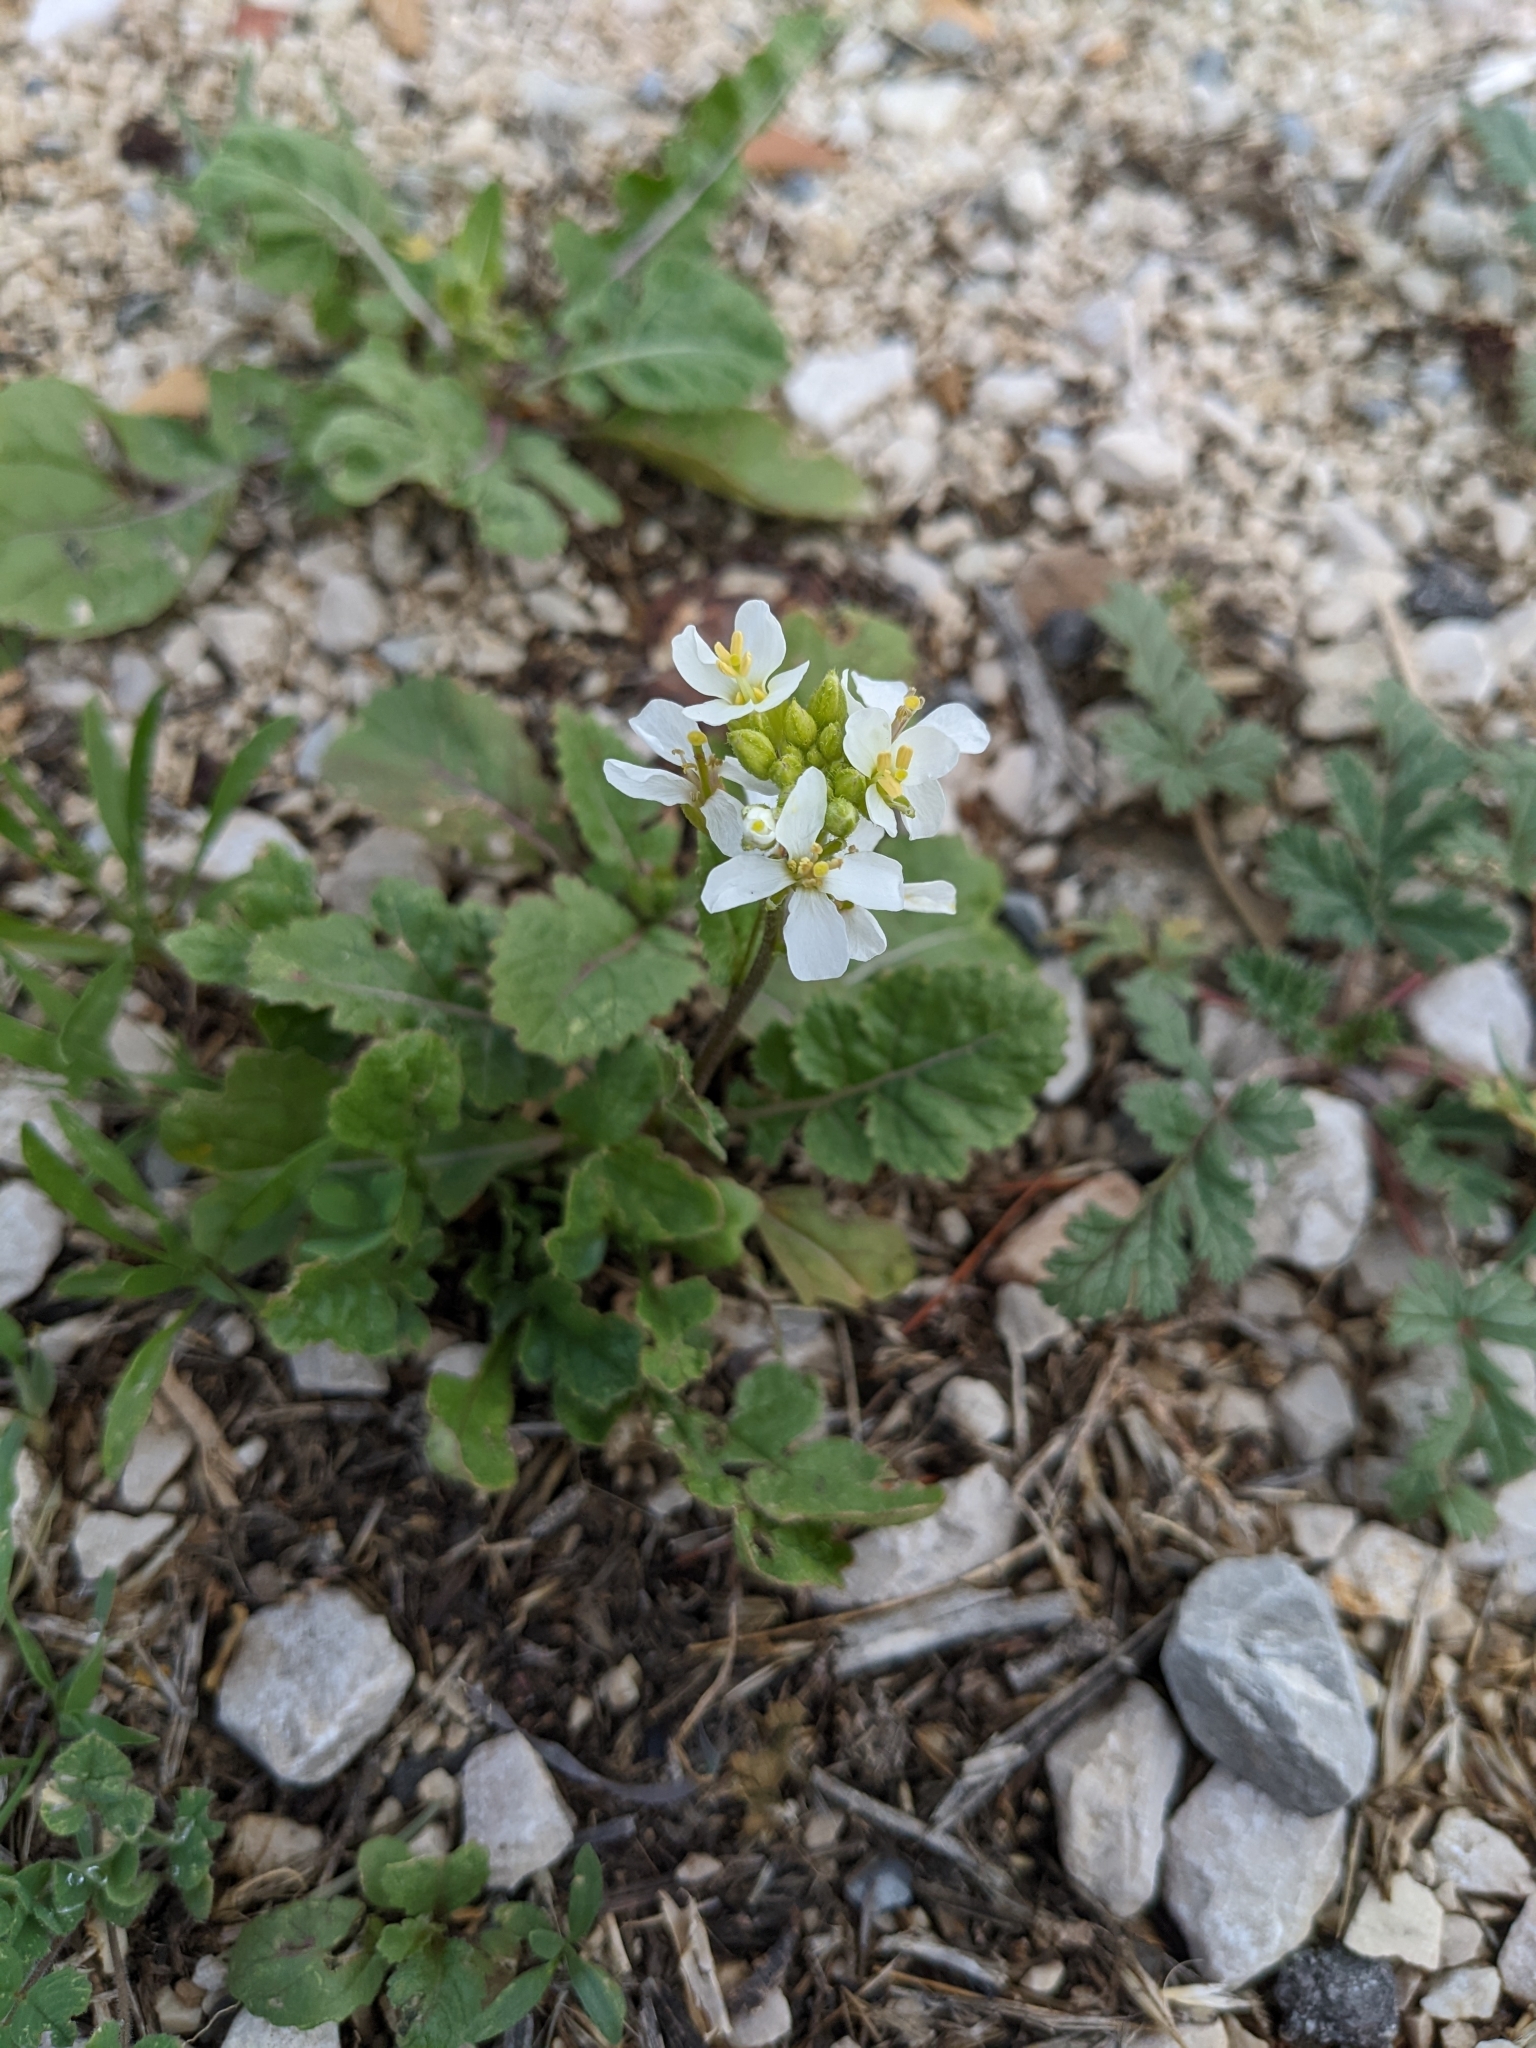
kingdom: Plantae
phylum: Tracheophyta
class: Magnoliopsida
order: Brassicales
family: Brassicaceae
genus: Diplotaxis
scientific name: Diplotaxis erucoides
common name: White rocket
